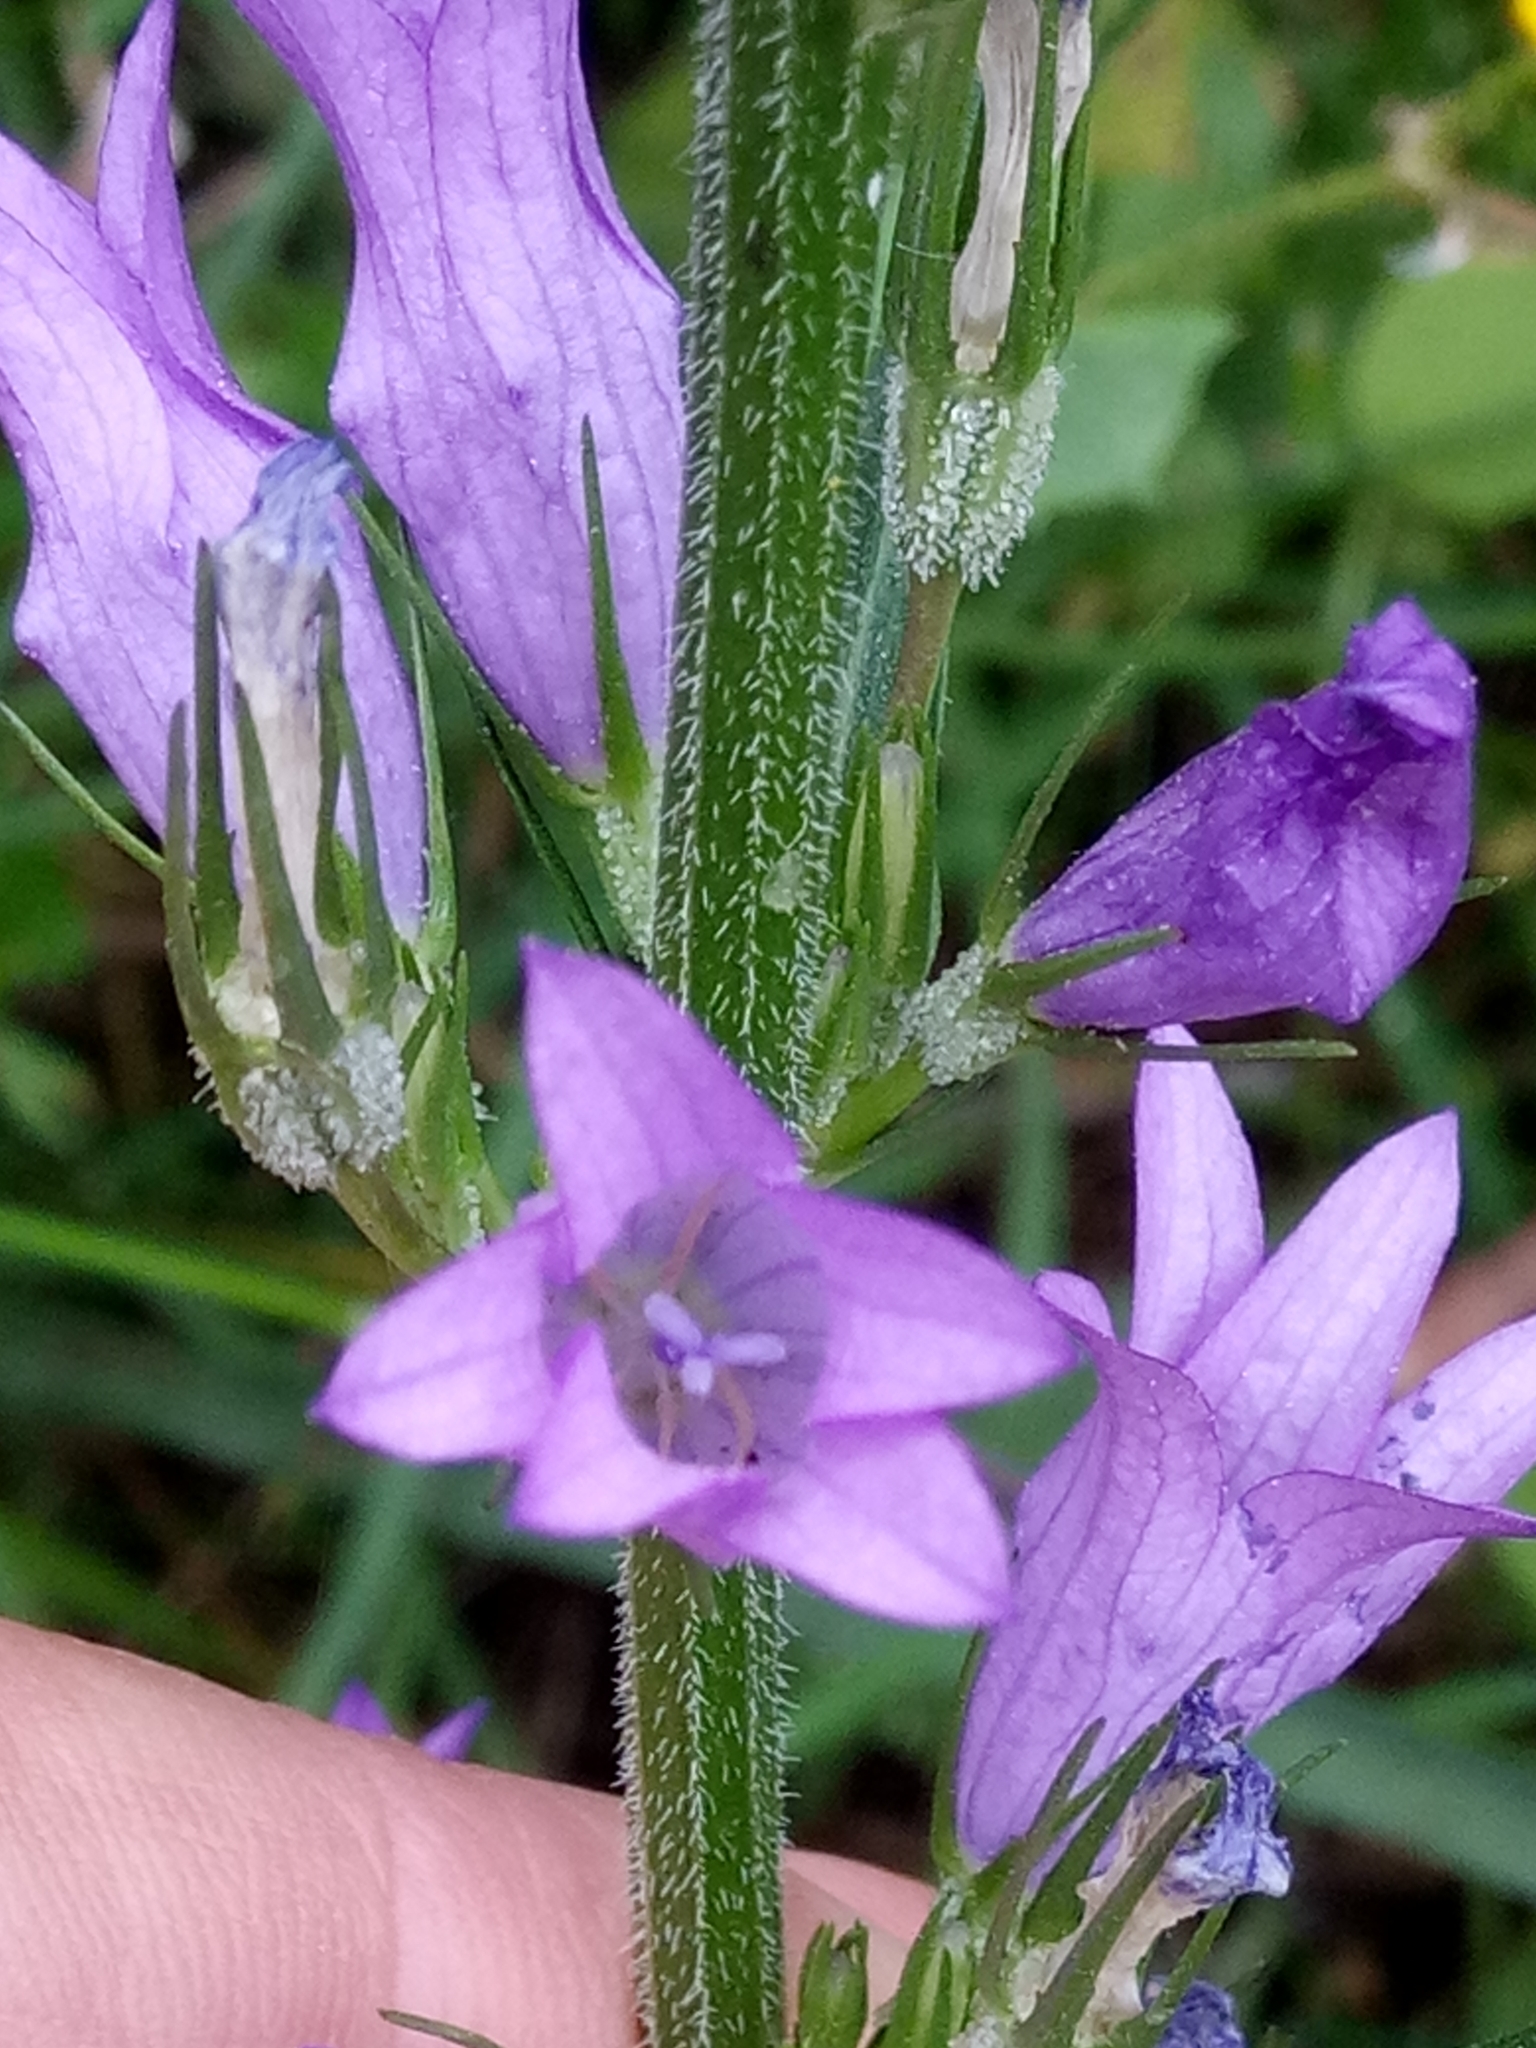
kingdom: Plantae
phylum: Tracheophyta
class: Magnoliopsida
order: Asterales
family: Campanulaceae
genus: Campanula
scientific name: Campanula rapunculus
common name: Rampion bellflower
